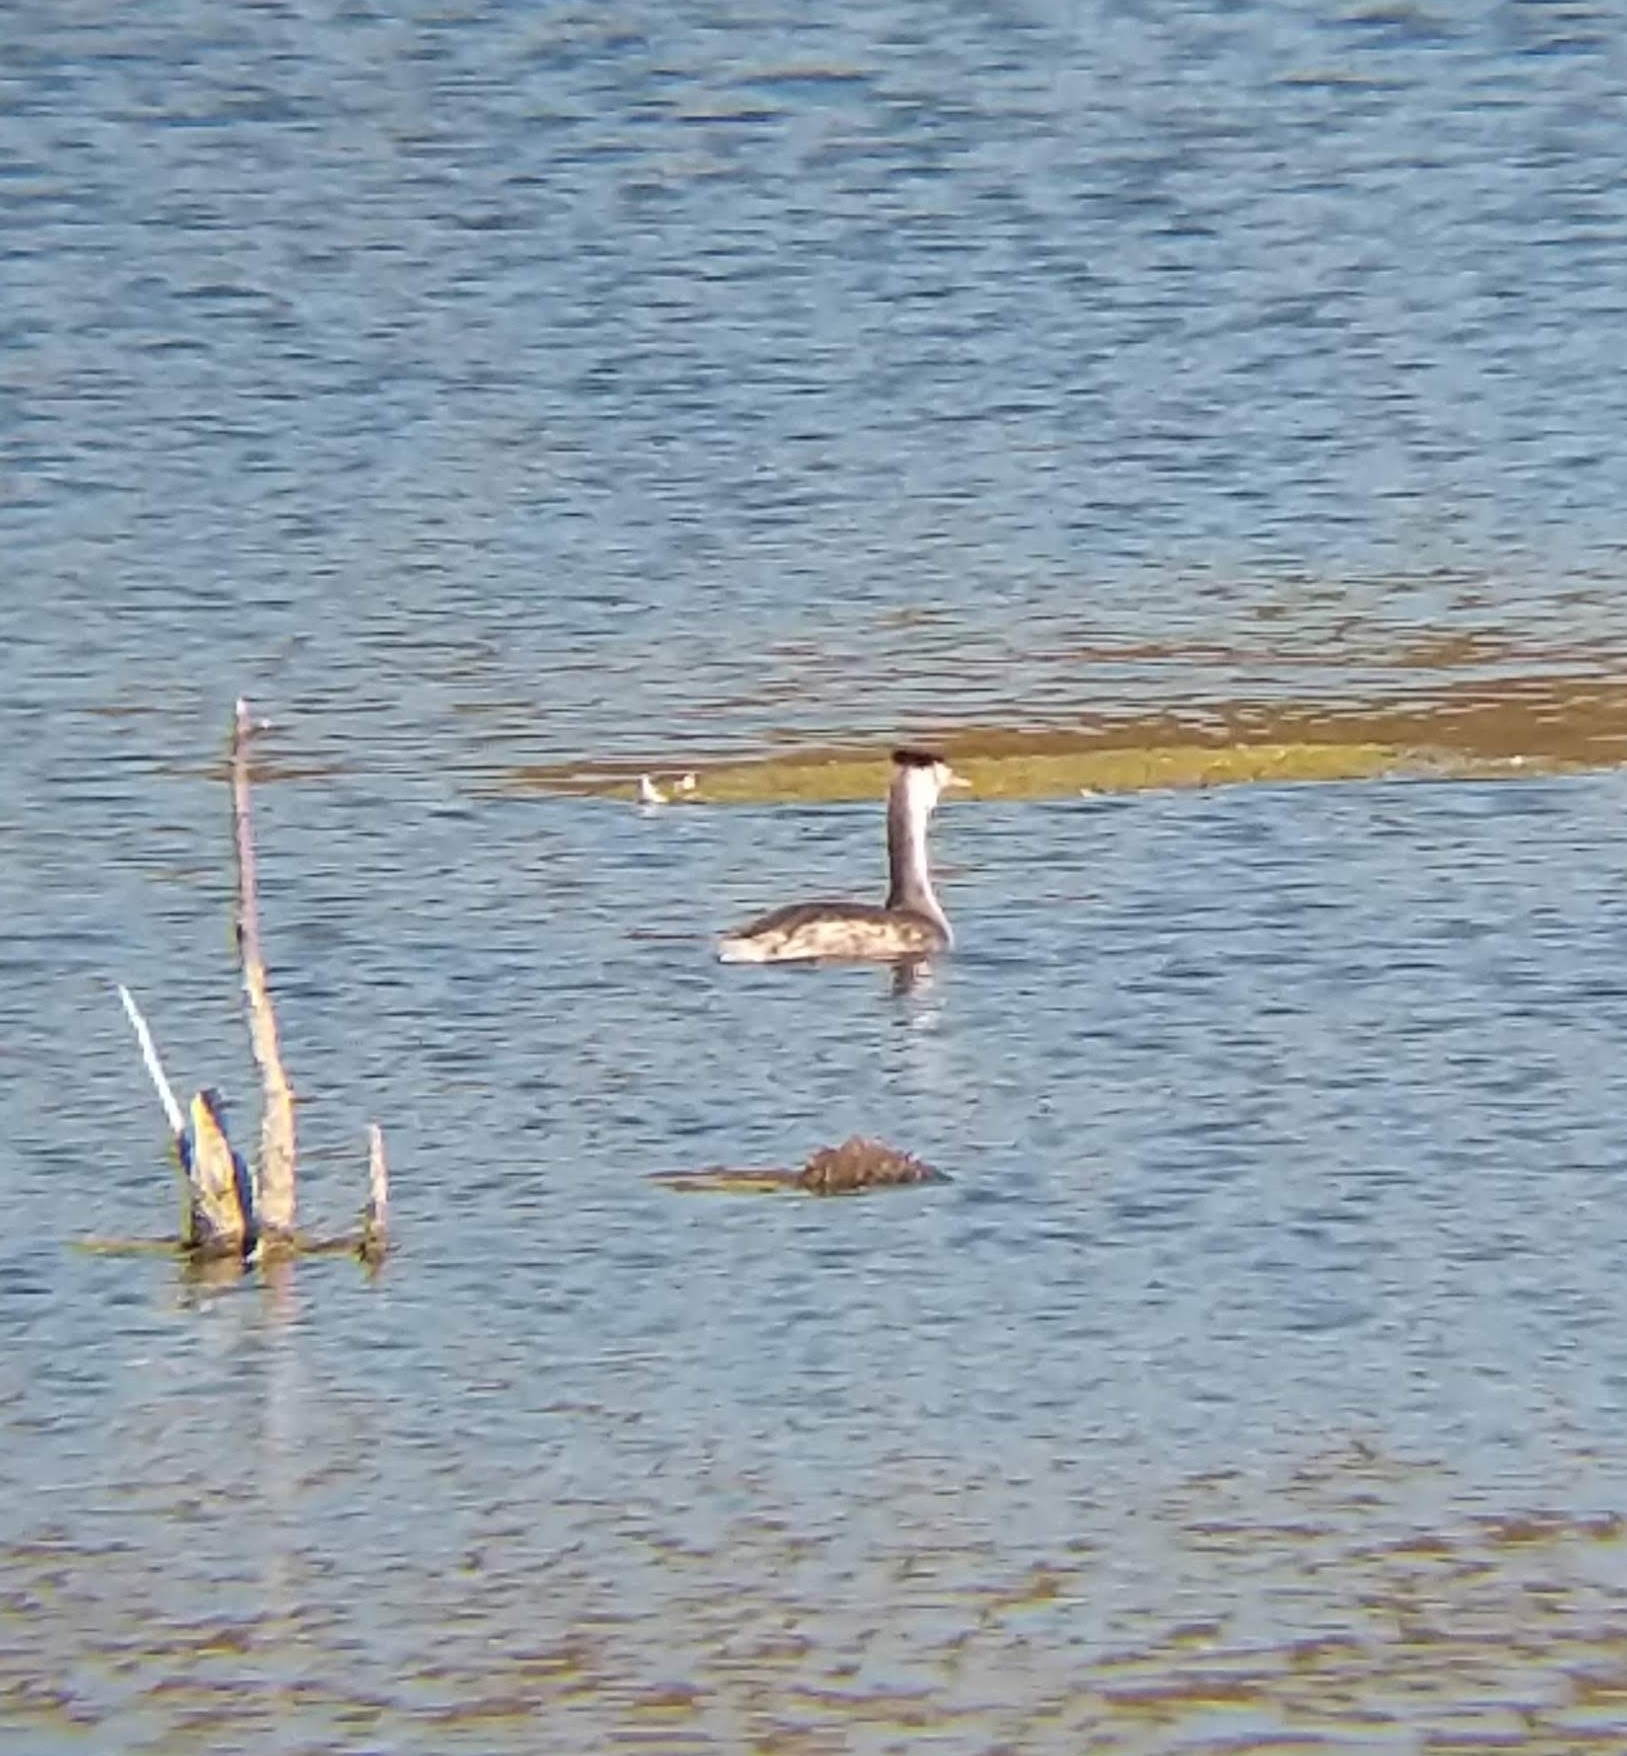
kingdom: Animalia
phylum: Chordata
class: Aves
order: Podicipediformes
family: Podicipedidae
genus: Podiceps
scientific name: Podiceps cristatus
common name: Great crested grebe
